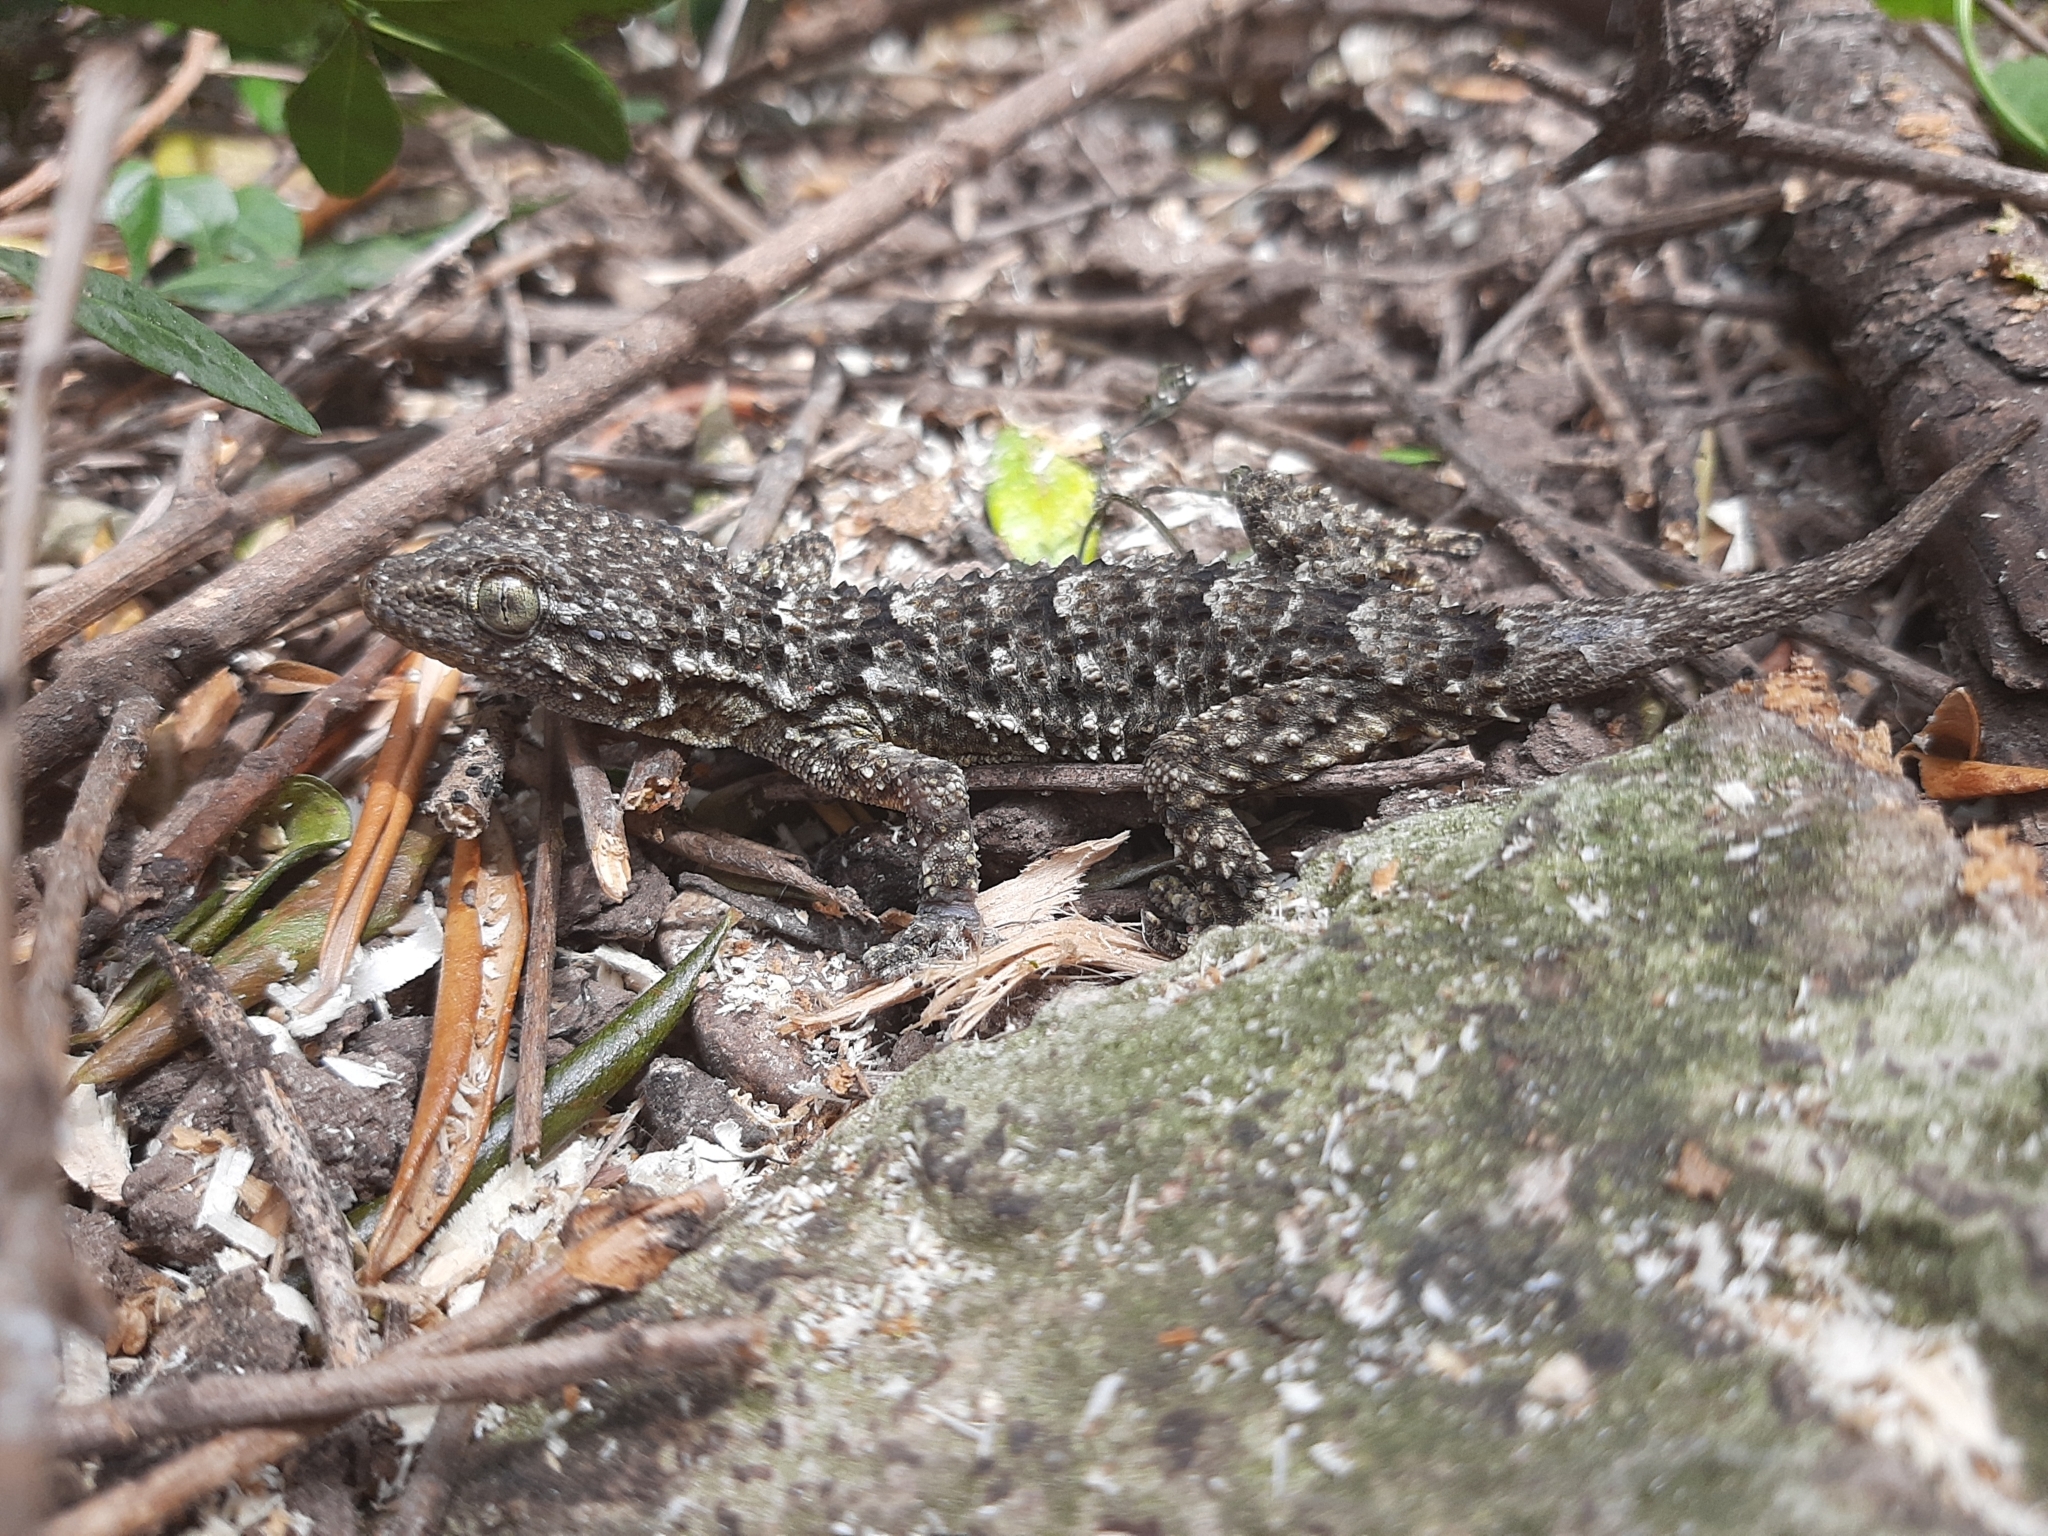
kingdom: Animalia
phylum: Chordata
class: Squamata
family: Phyllodactylidae
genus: Tarentola
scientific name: Tarentola mauritanica
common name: Moorish gecko
